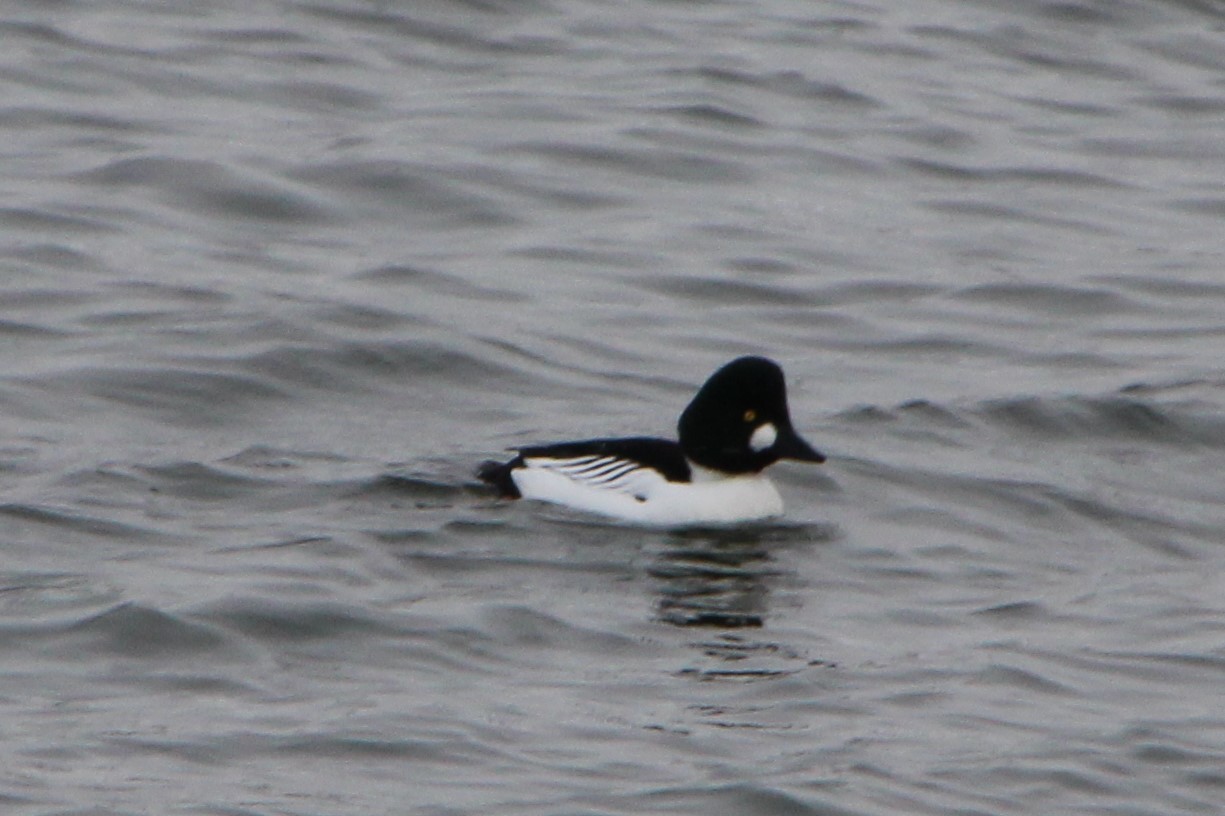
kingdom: Animalia
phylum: Chordata
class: Aves
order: Anseriformes
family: Anatidae
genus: Bucephala
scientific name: Bucephala clangula
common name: Common goldeneye
